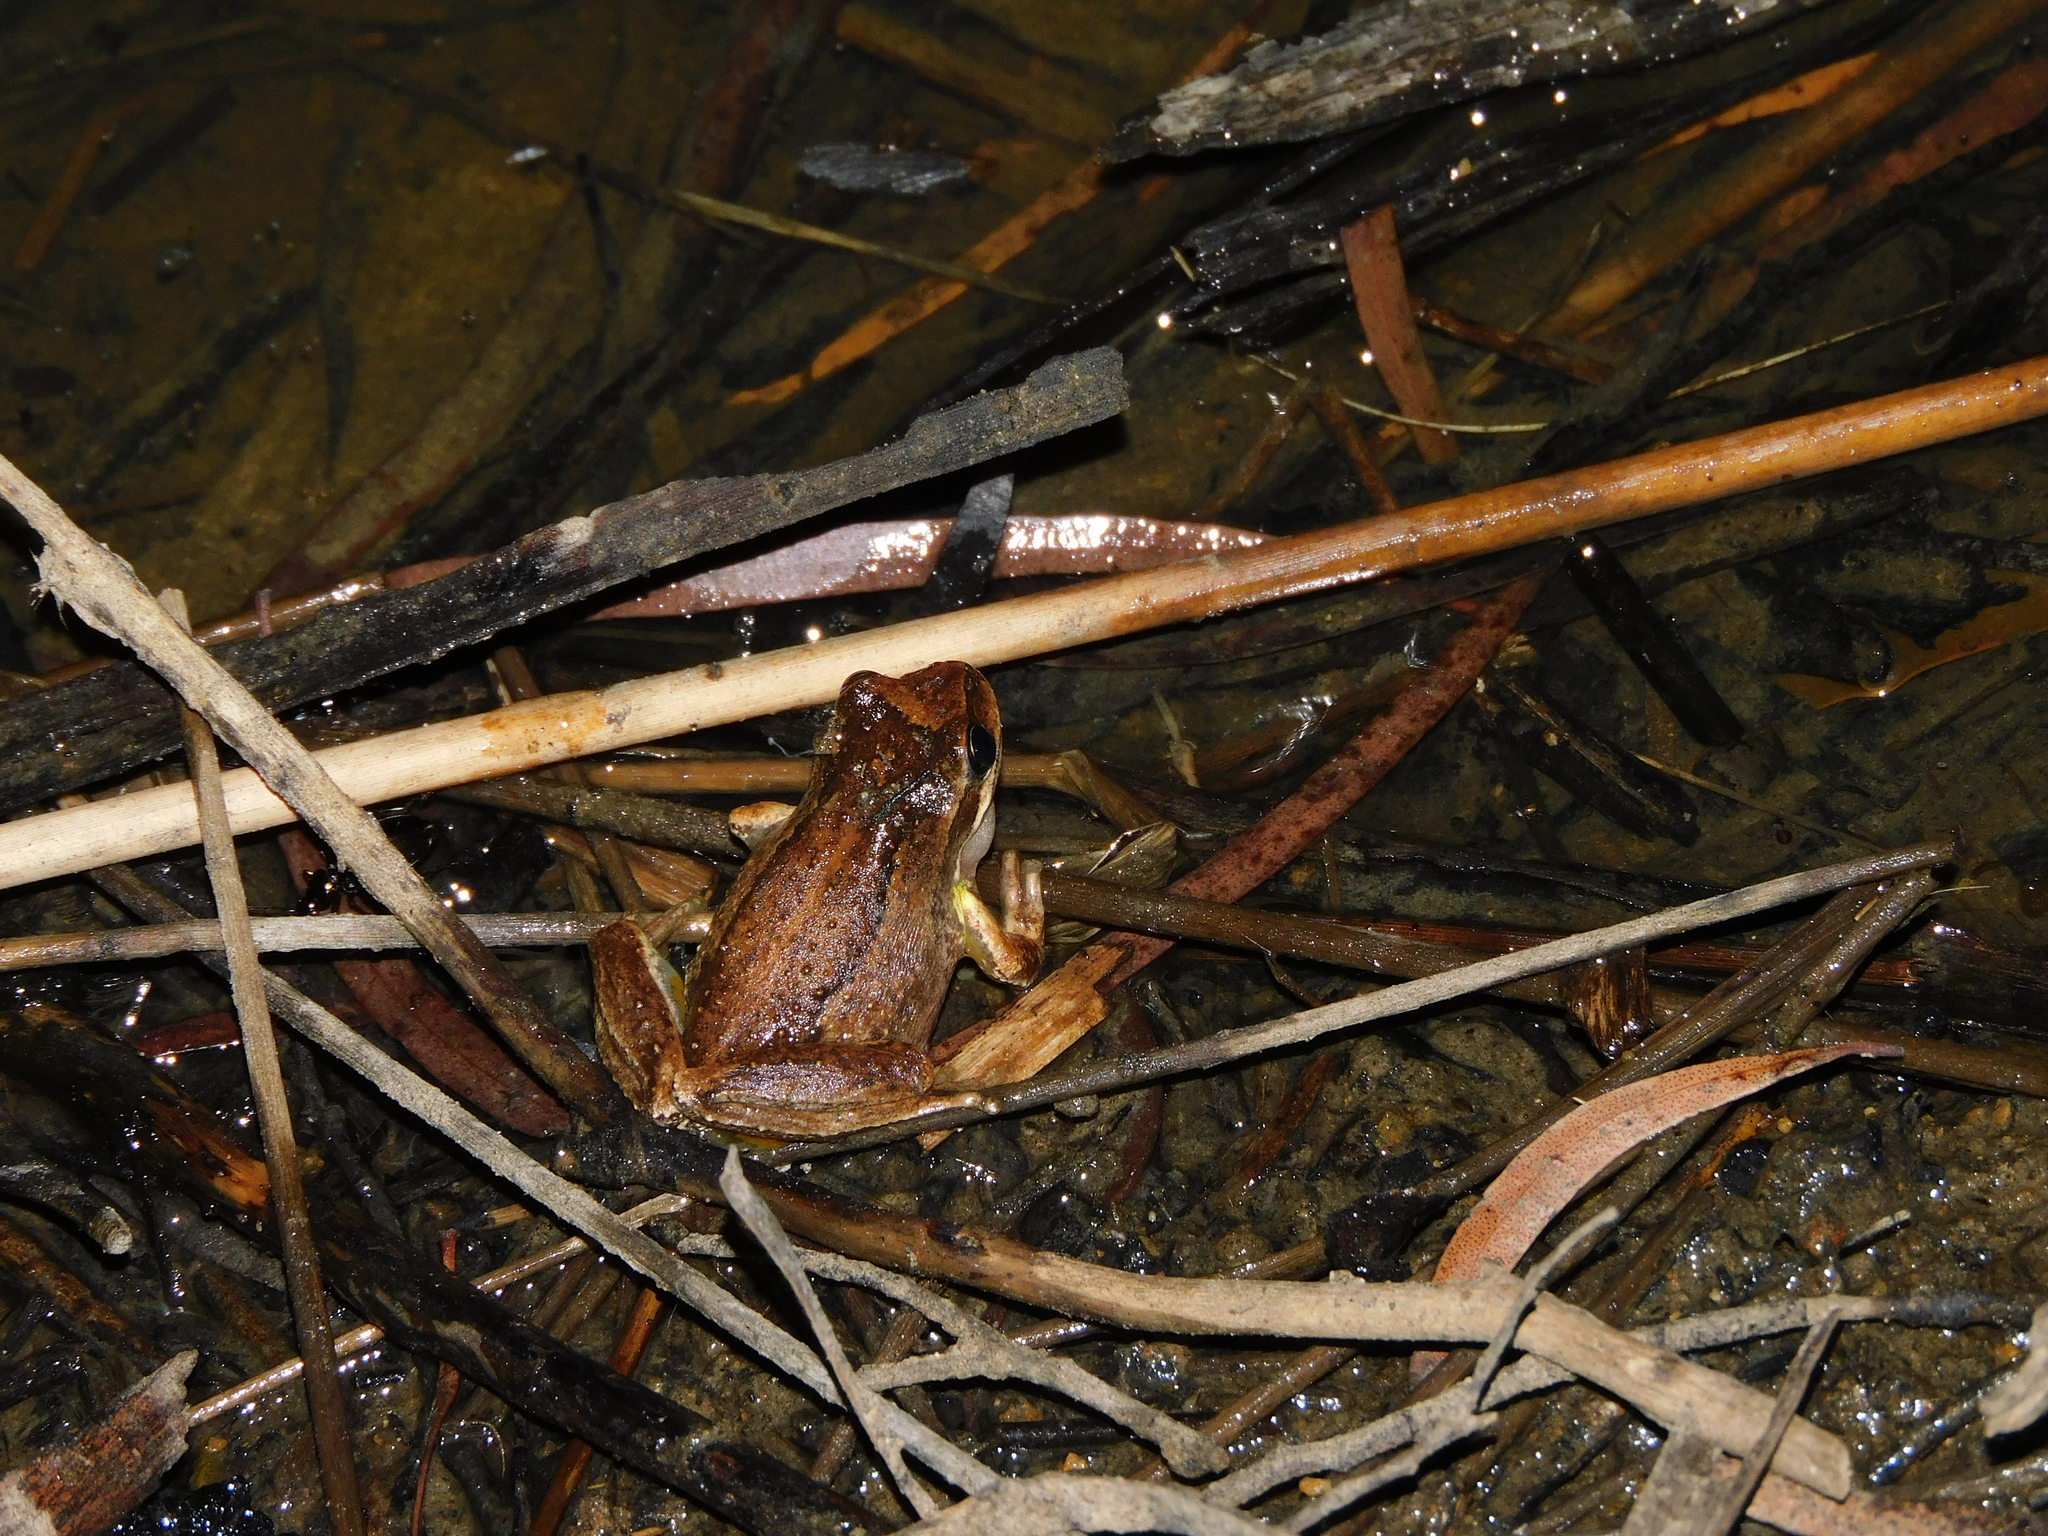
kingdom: Animalia
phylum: Chordata
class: Amphibia
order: Anura
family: Pelodryadidae
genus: Litoria
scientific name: Litoria ewingii
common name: Southern brown tree frog
